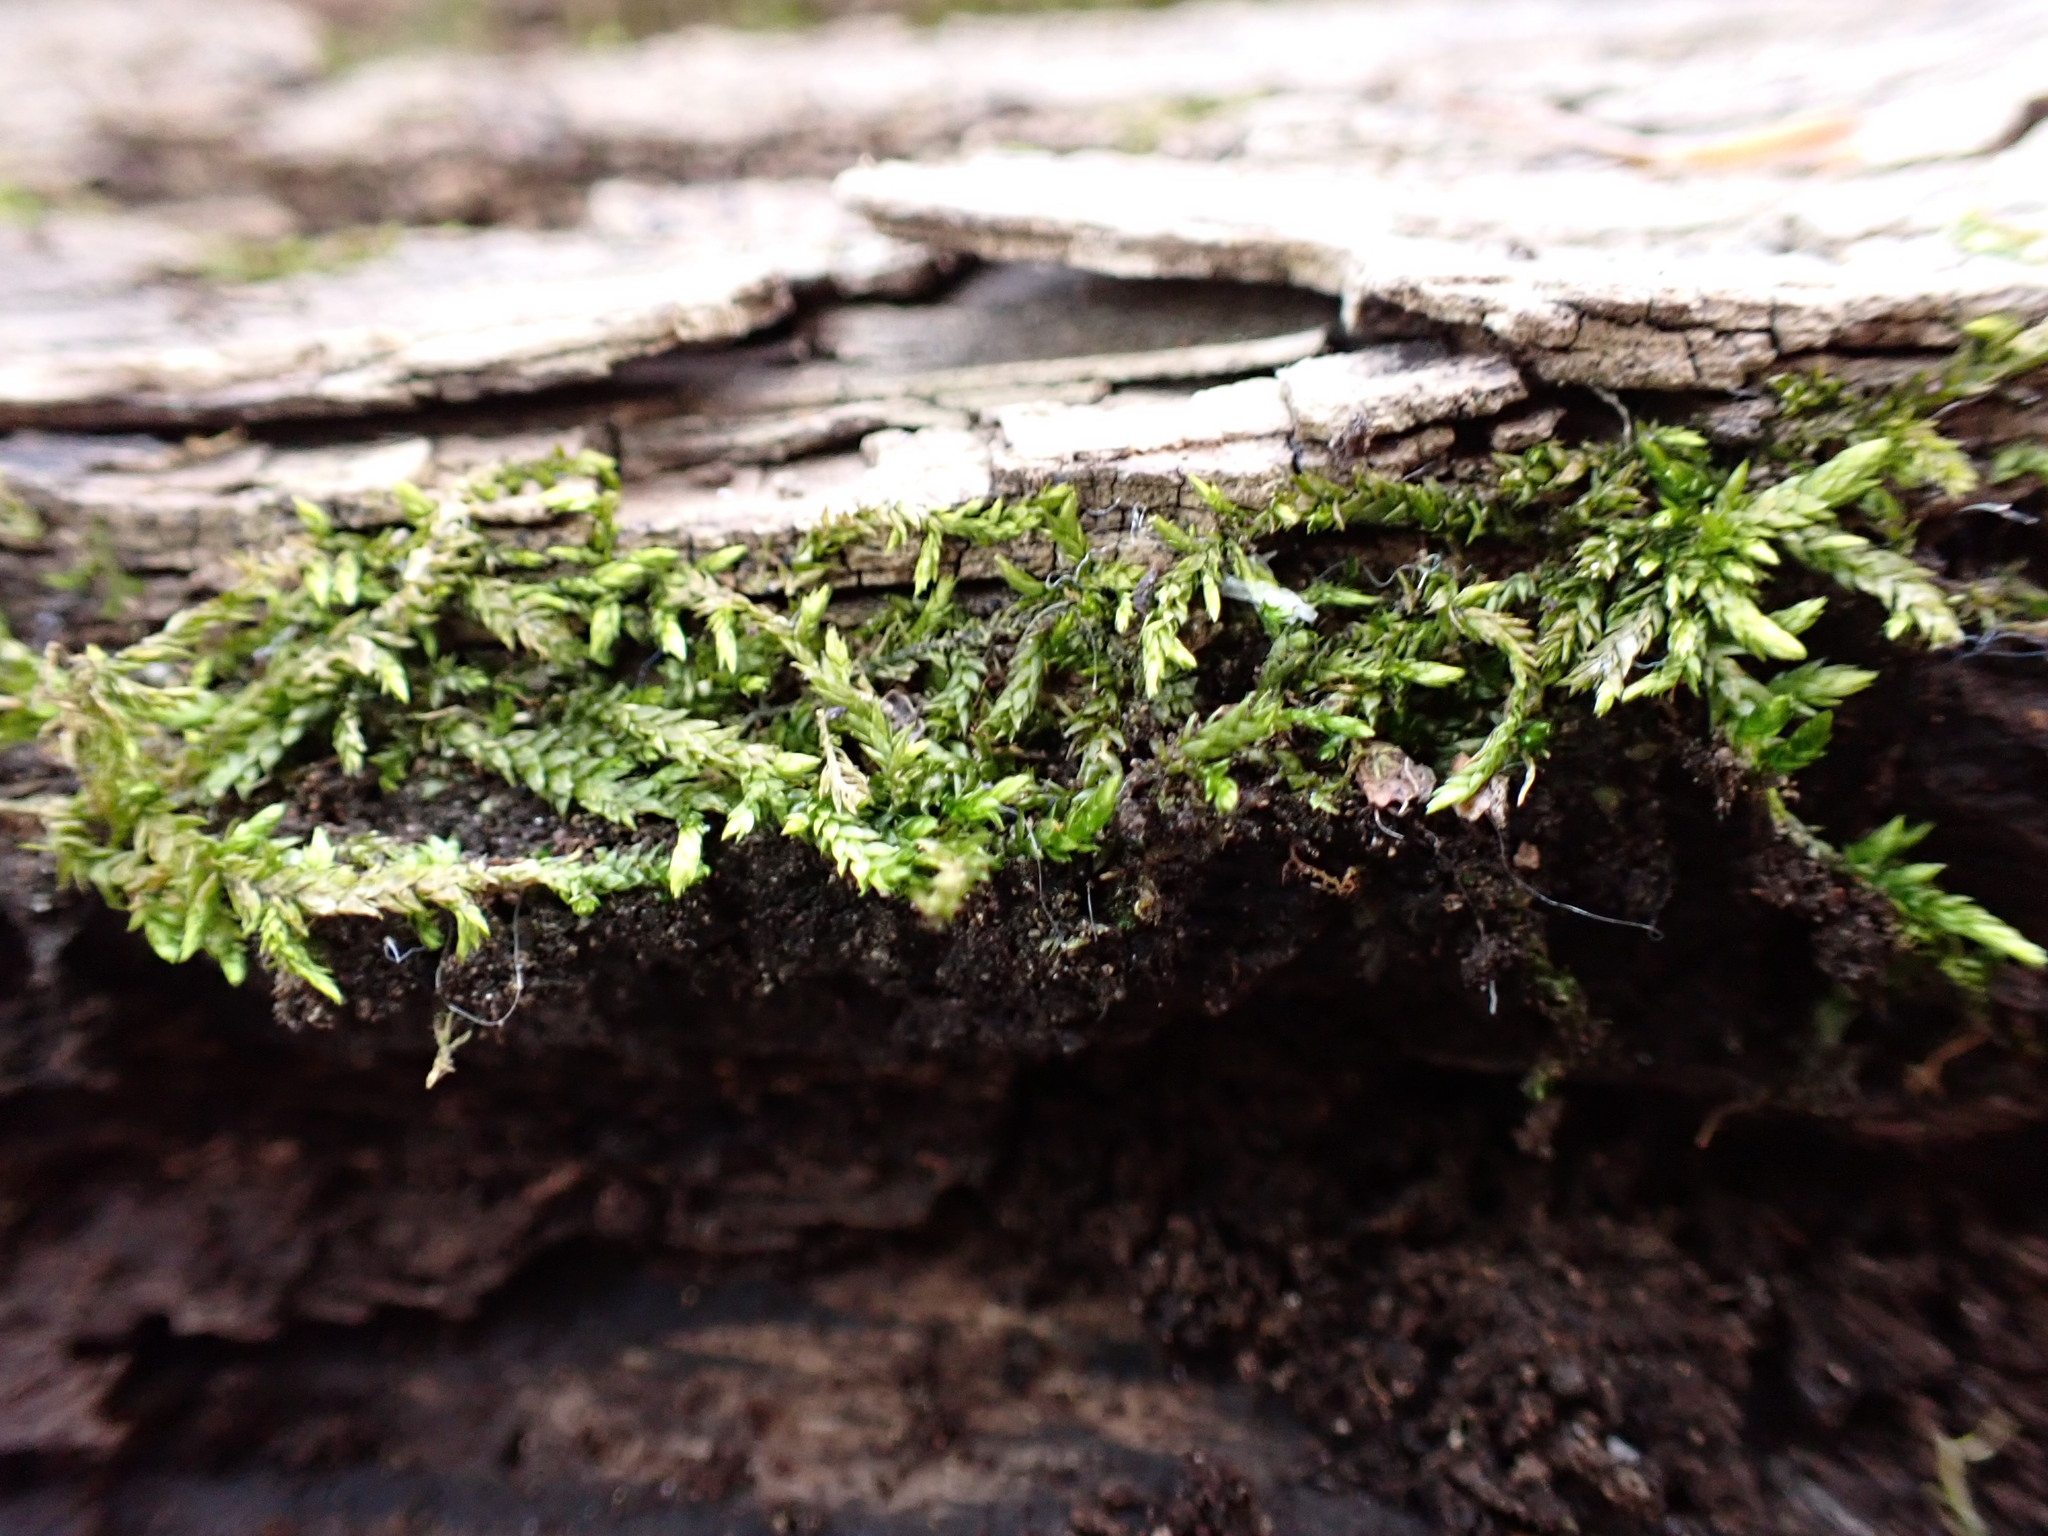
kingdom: Plantae
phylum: Bryophyta
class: Bryopsida
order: Hypnales
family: Entodontaceae
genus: Entodon
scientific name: Entodon cladorrhizans
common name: Flat-stemmed entodon moss
